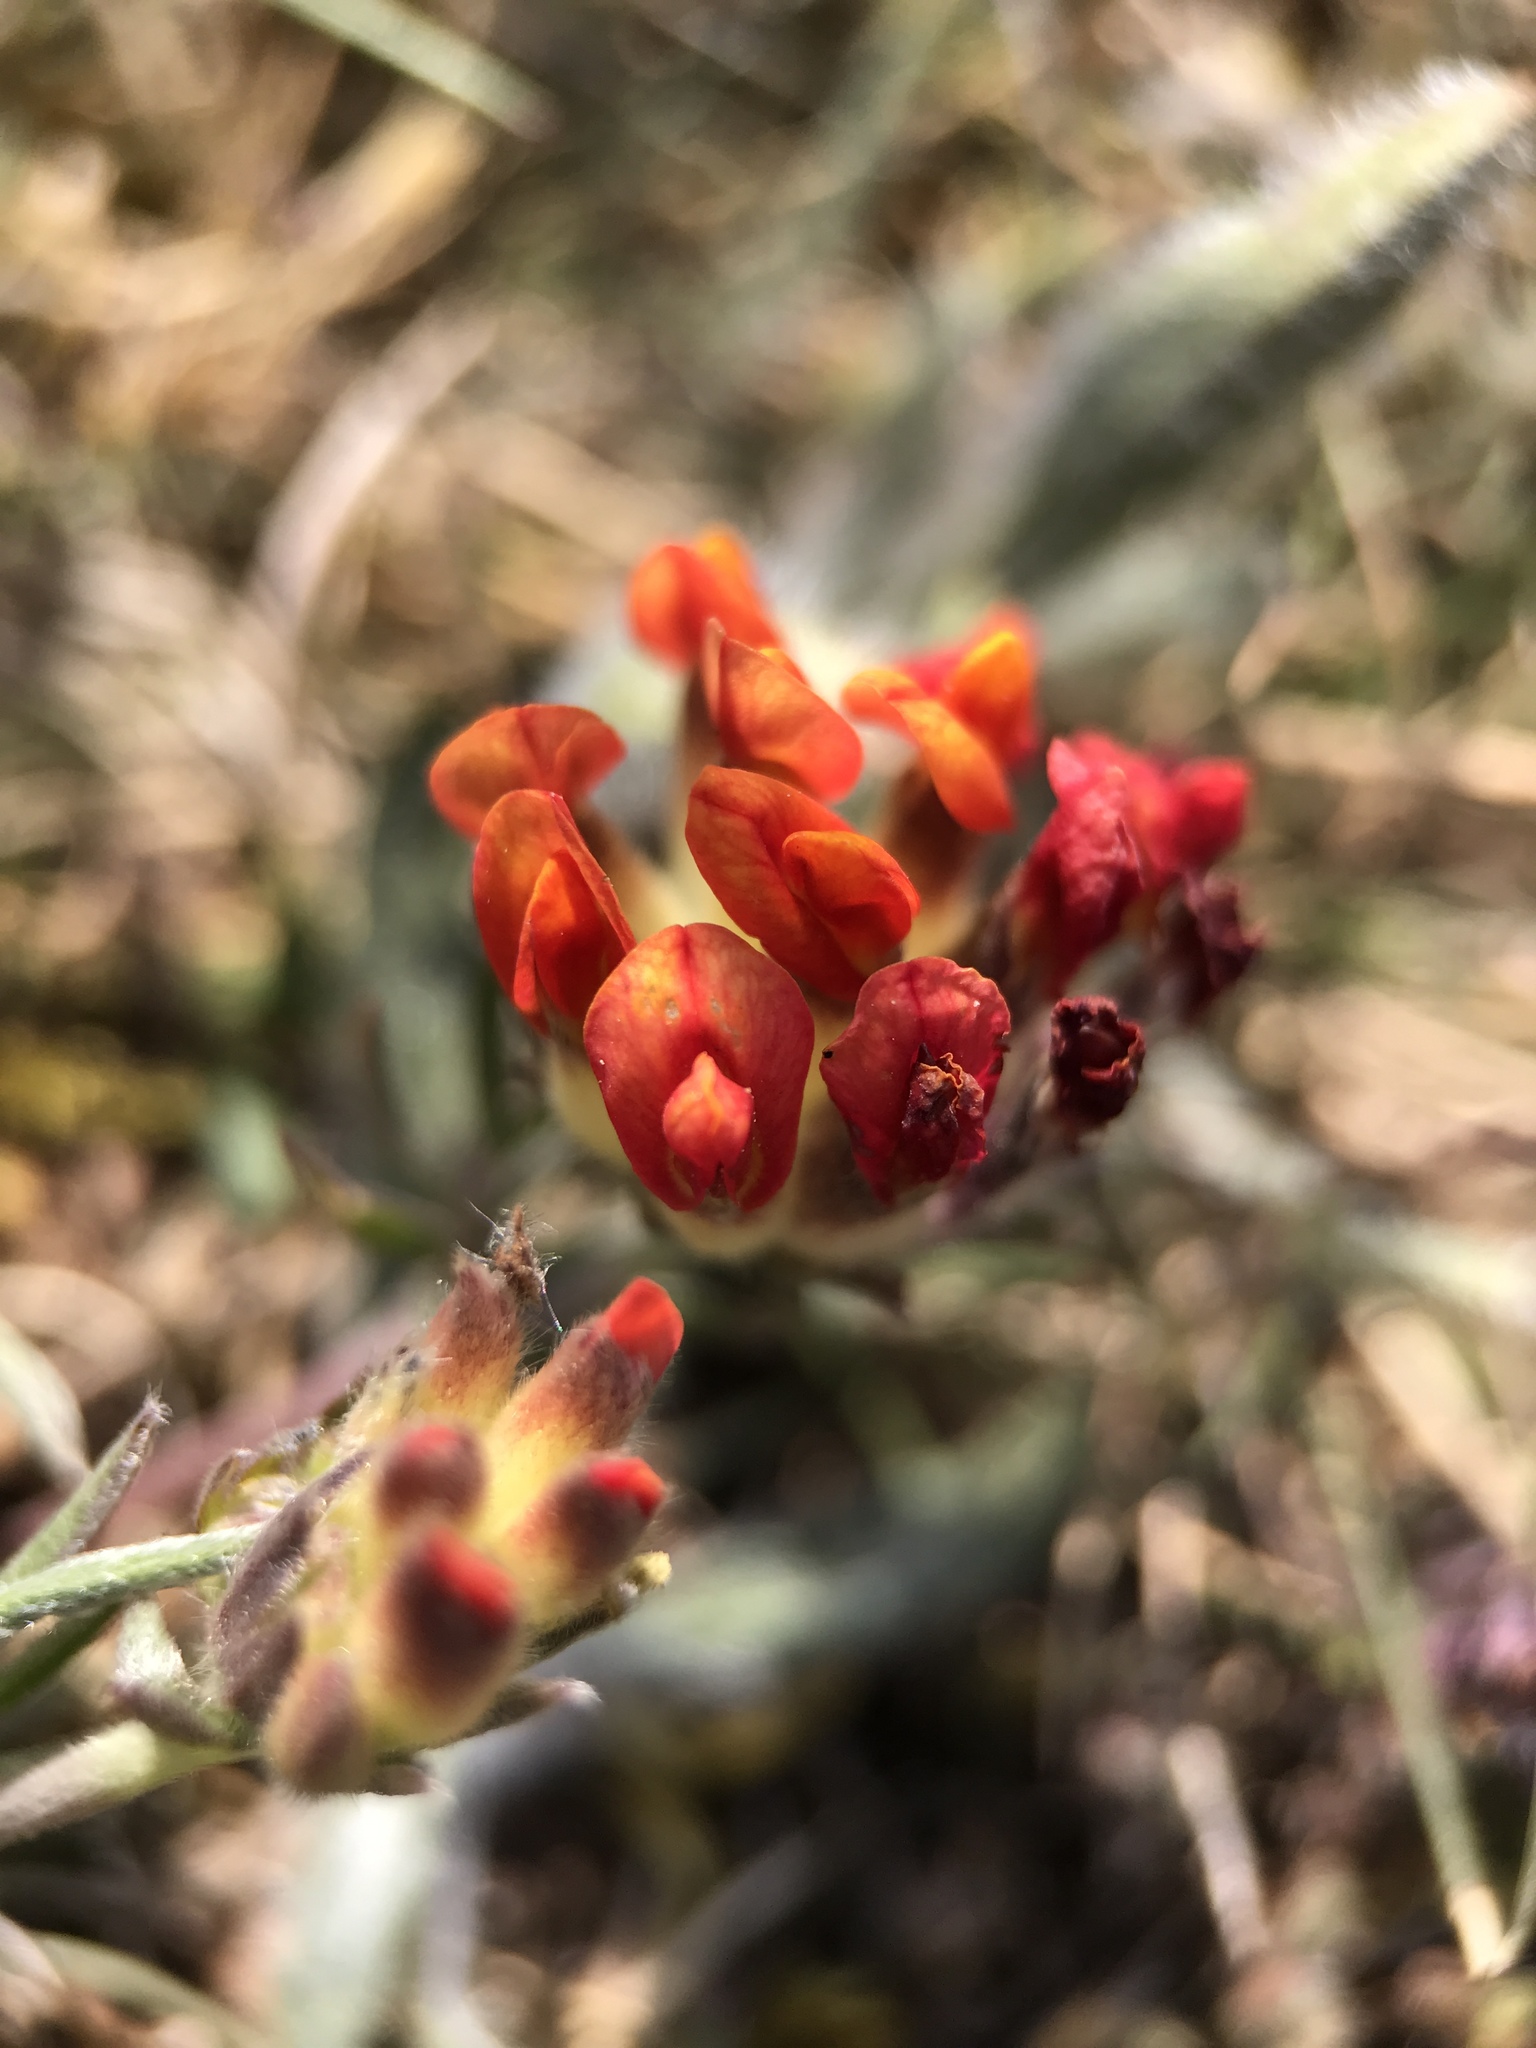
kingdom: Plantae
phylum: Tracheophyta
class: Magnoliopsida
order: Fabales
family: Fabaceae
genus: Anthyllis
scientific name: Anthyllis vulneraria
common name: Kidney vetch
